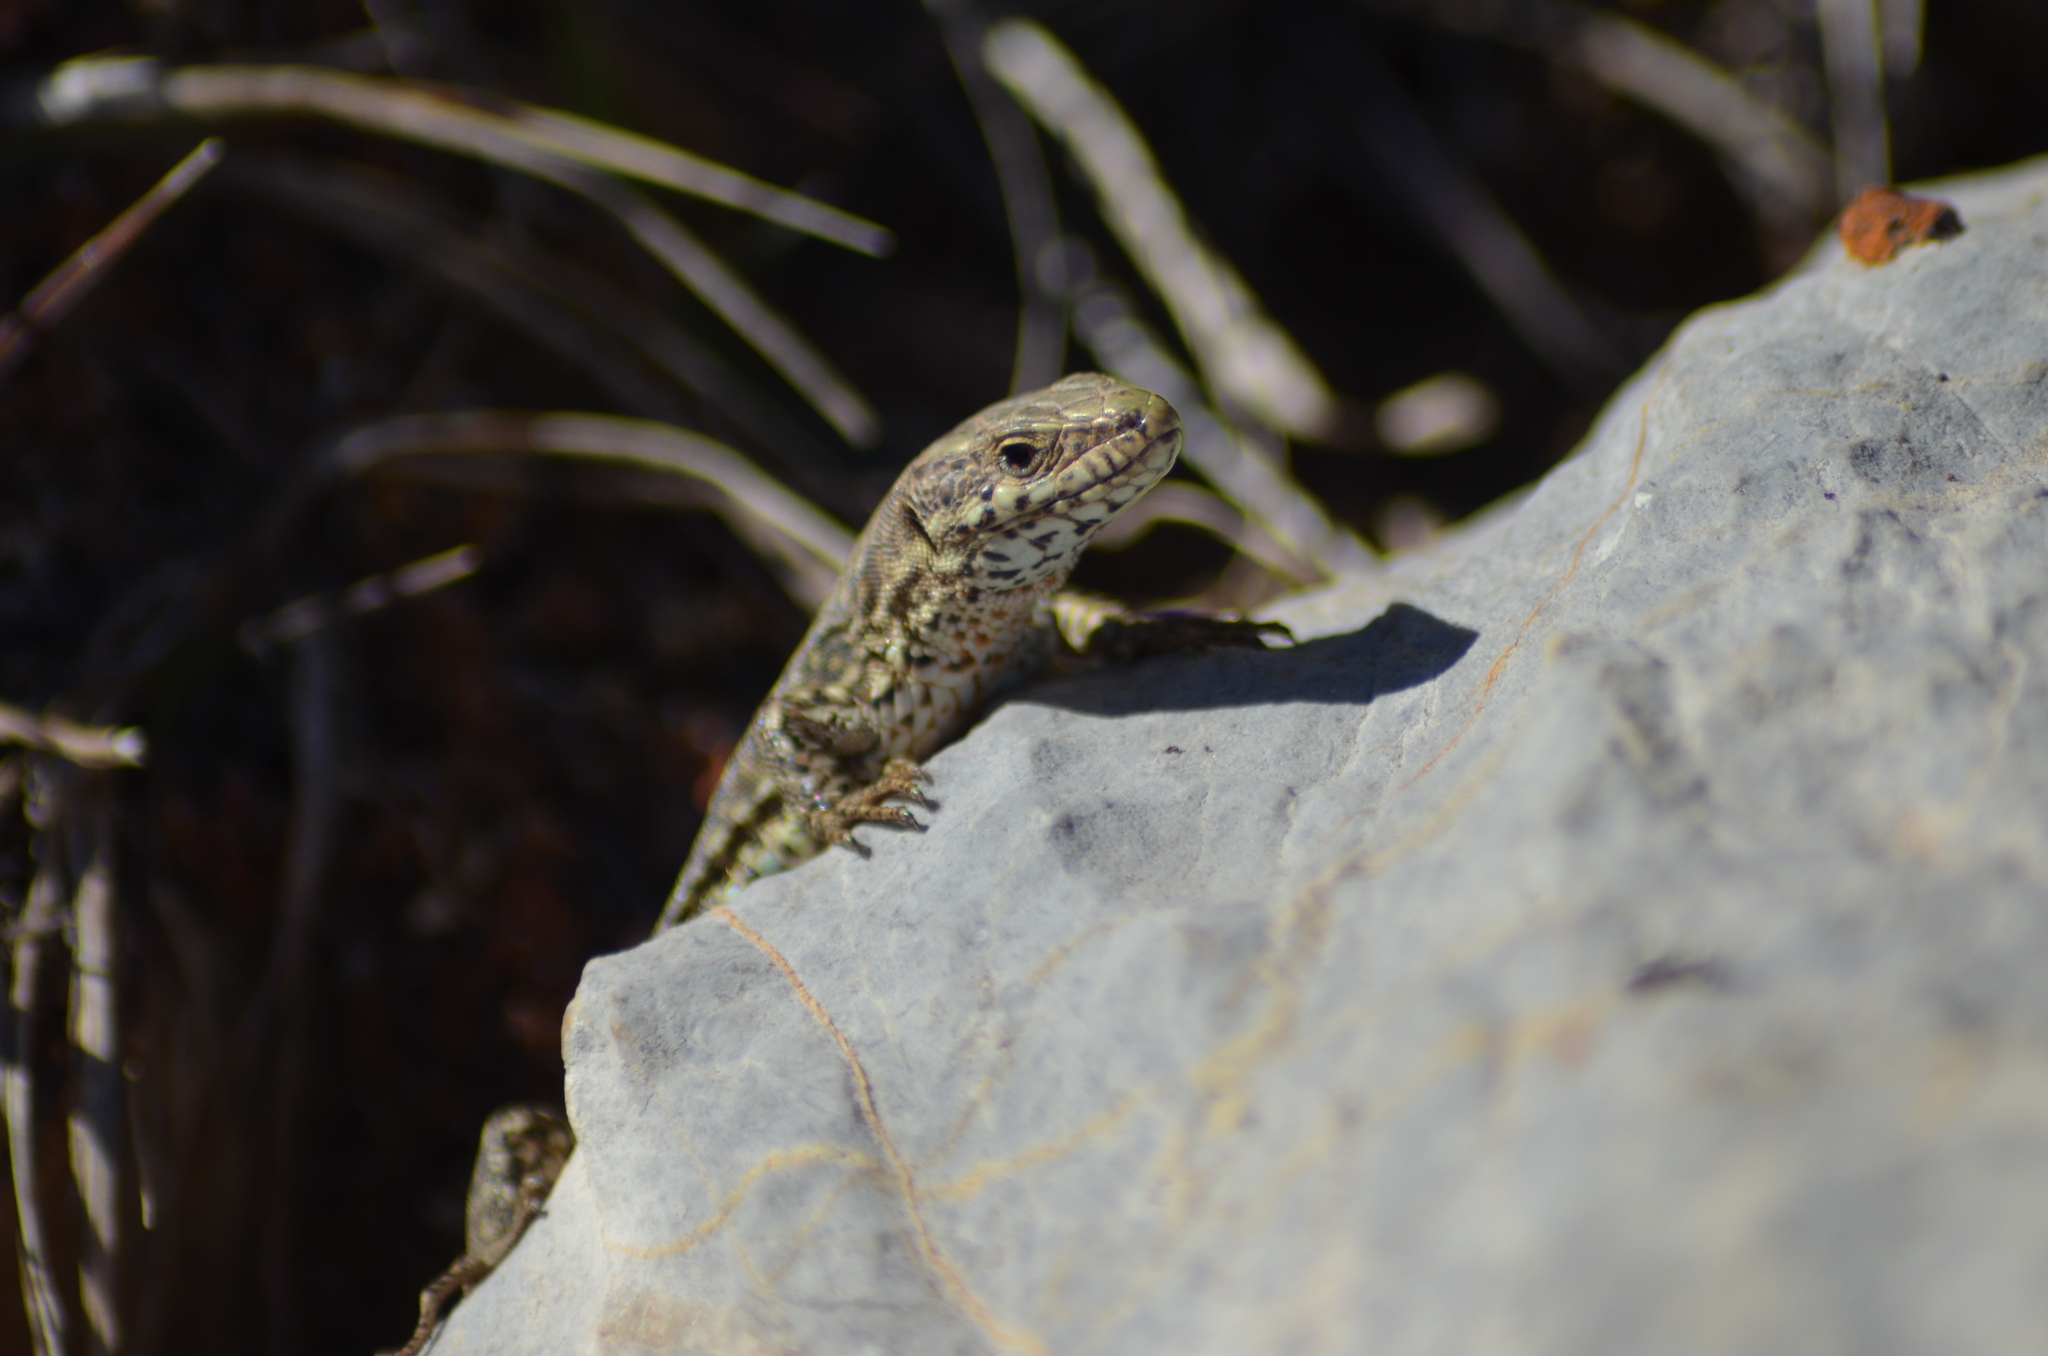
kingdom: Animalia
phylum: Chordata
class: Squamata
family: Lacertidae
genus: Podarcis
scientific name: Podarcis muralis
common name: Common wall lizard
